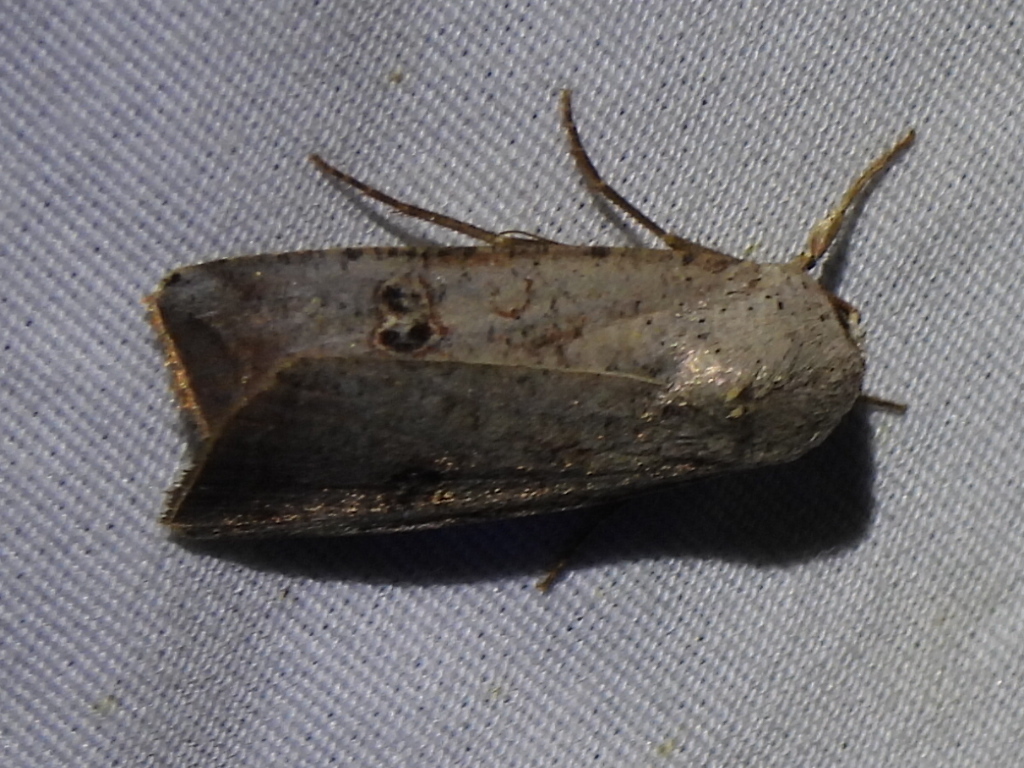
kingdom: Animalia
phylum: Arthropoda
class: Insecta
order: Lepidoptera
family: Noctuidae
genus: Anicla
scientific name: Anicla infecta
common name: Green cutworm
